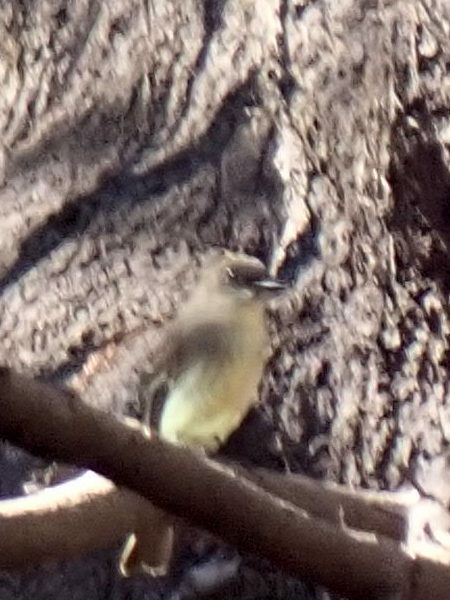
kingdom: Animalia
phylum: Chordata
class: Aves
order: Passeriformes
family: Tyrannidae
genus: Sayornis
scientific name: Sayornis phoebe
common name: Eastern phoebe
